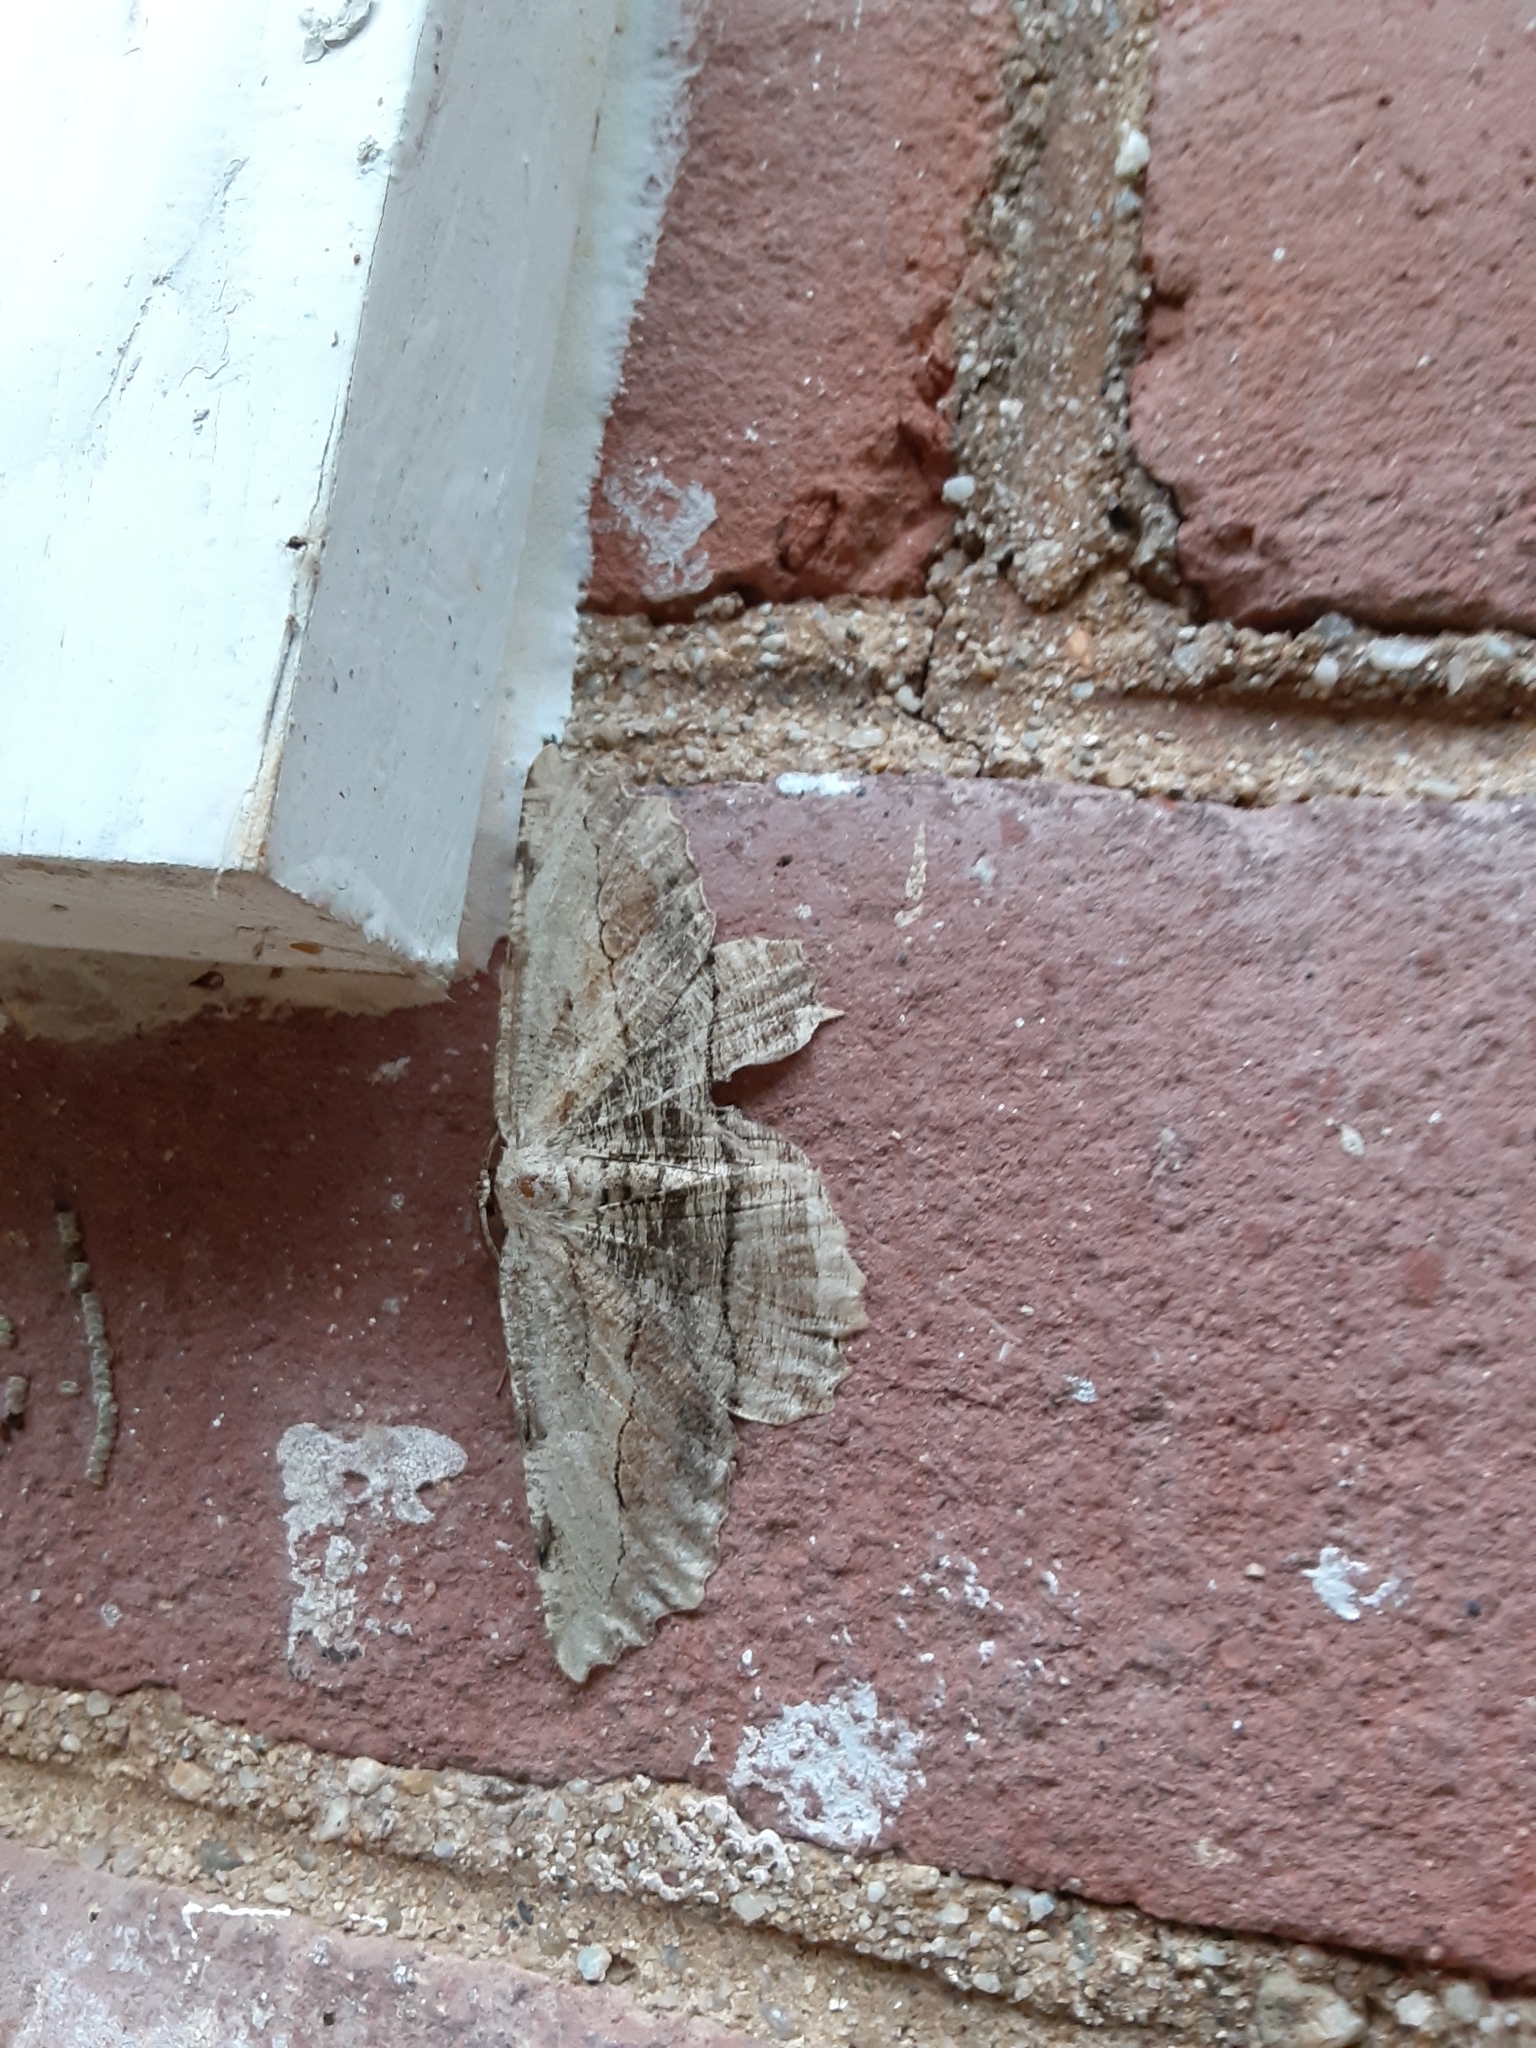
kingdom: Animalia
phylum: Arthropoda
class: Insecta
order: Lepidoptera
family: Geometridae
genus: Lytrosis
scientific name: Lytrosis unitaria
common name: Common lytrosis
